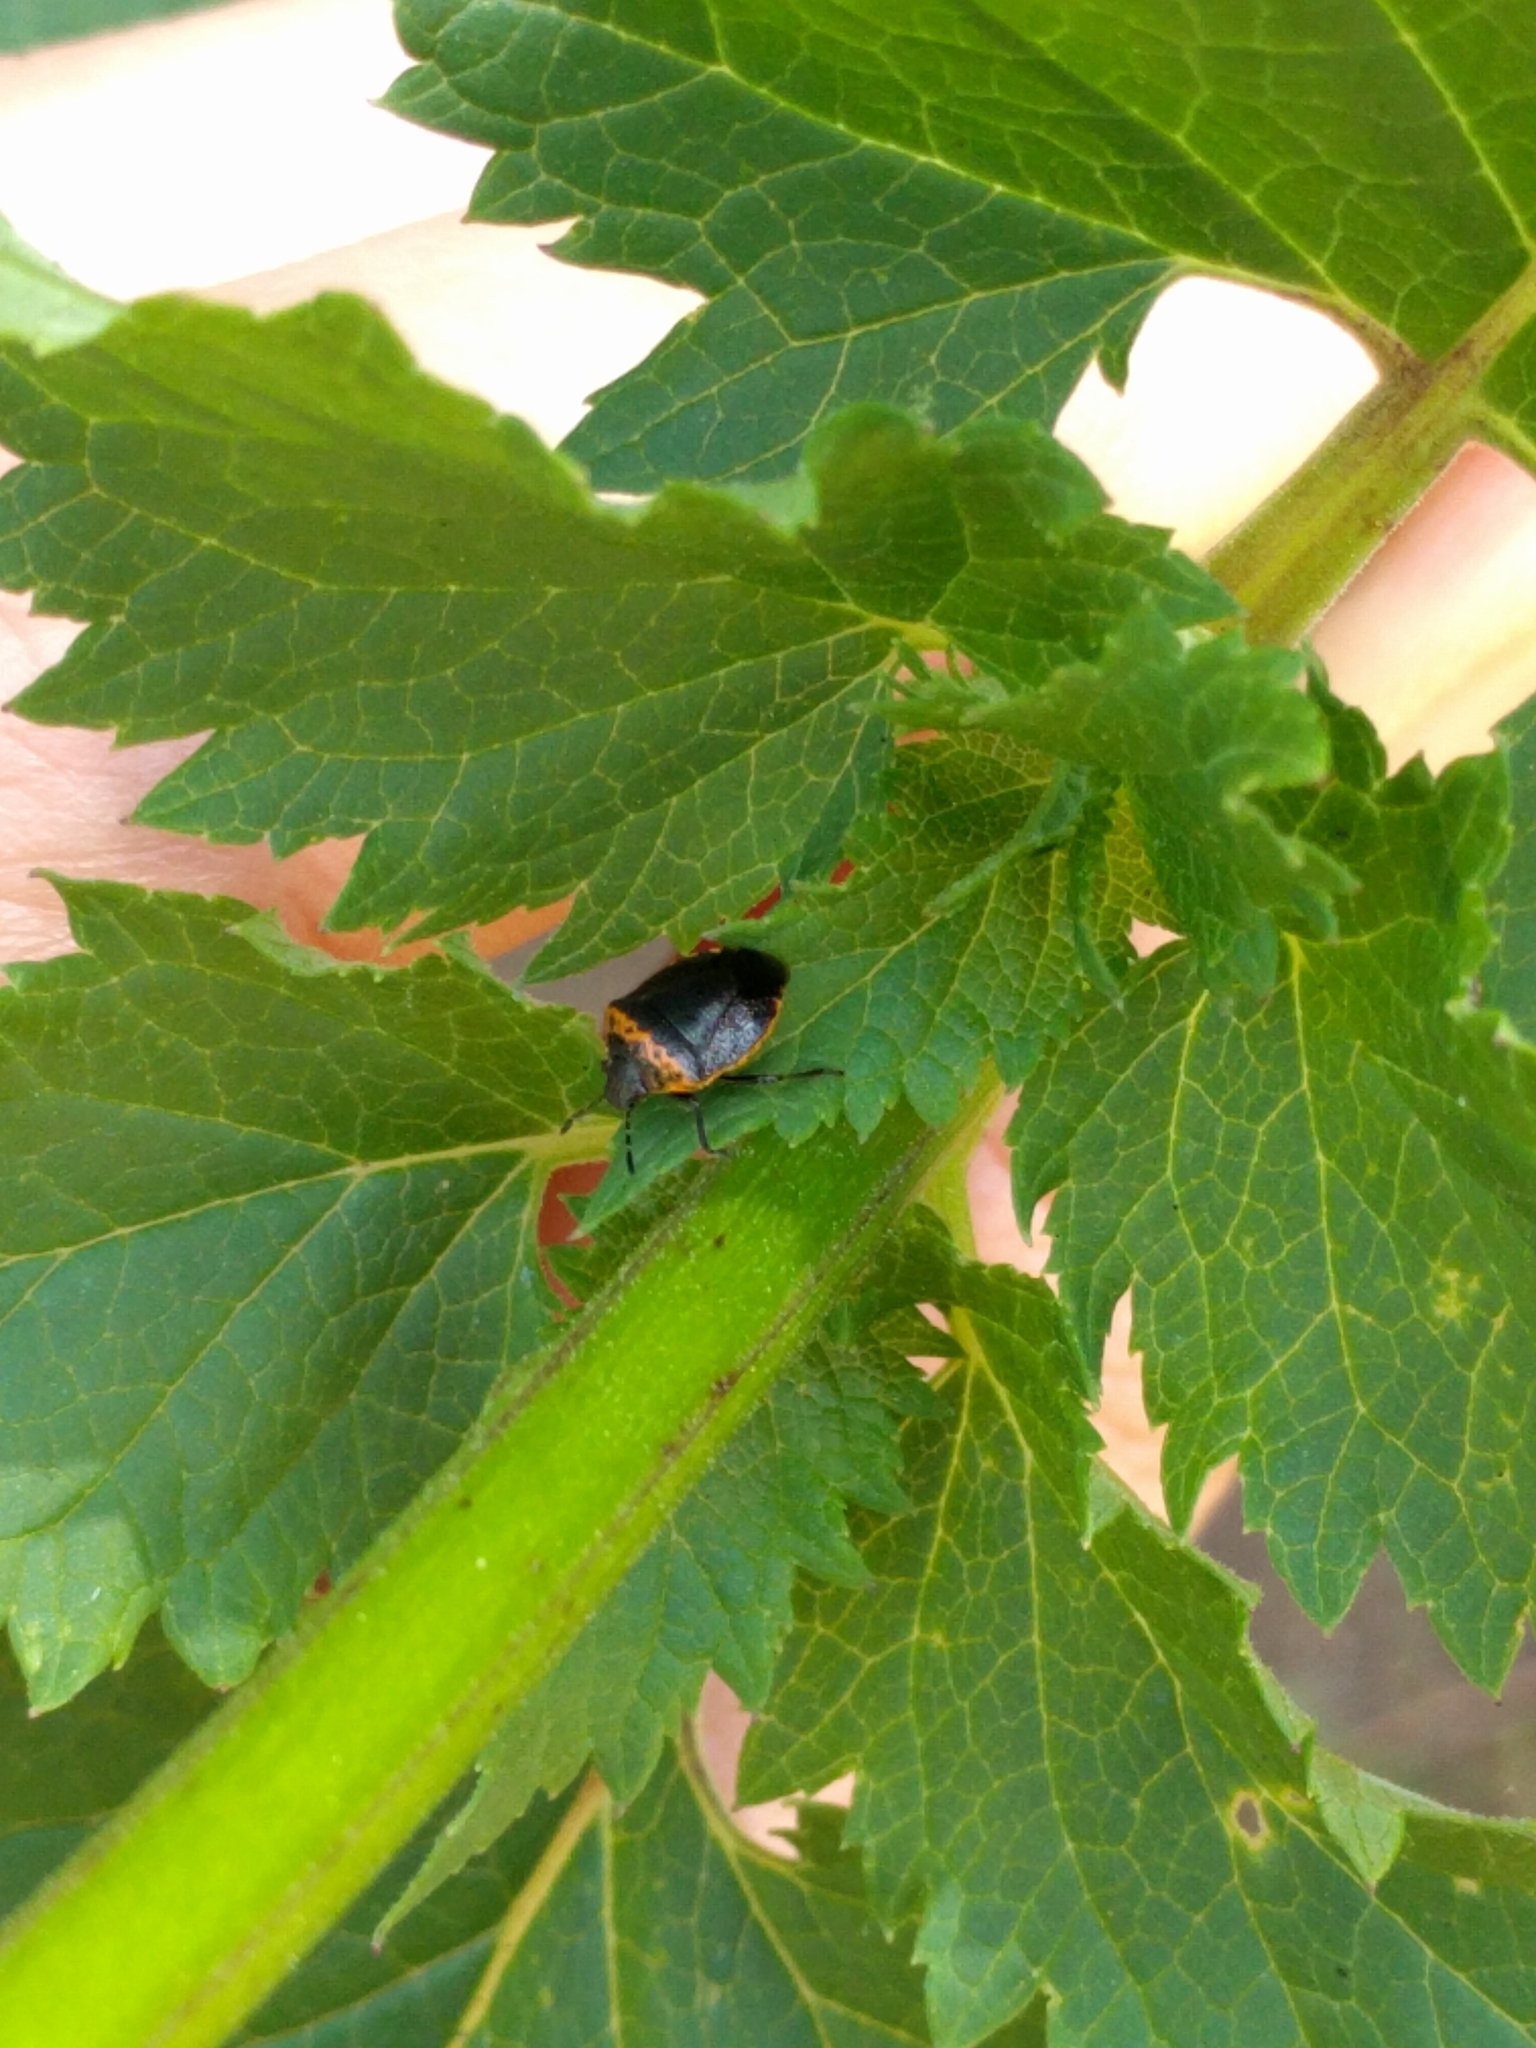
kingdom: Animalia
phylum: Arthropoda
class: Insecta
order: Hemiptera
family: Pentatomidae
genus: Cosmopepla
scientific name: Cosmopepla uhleri
